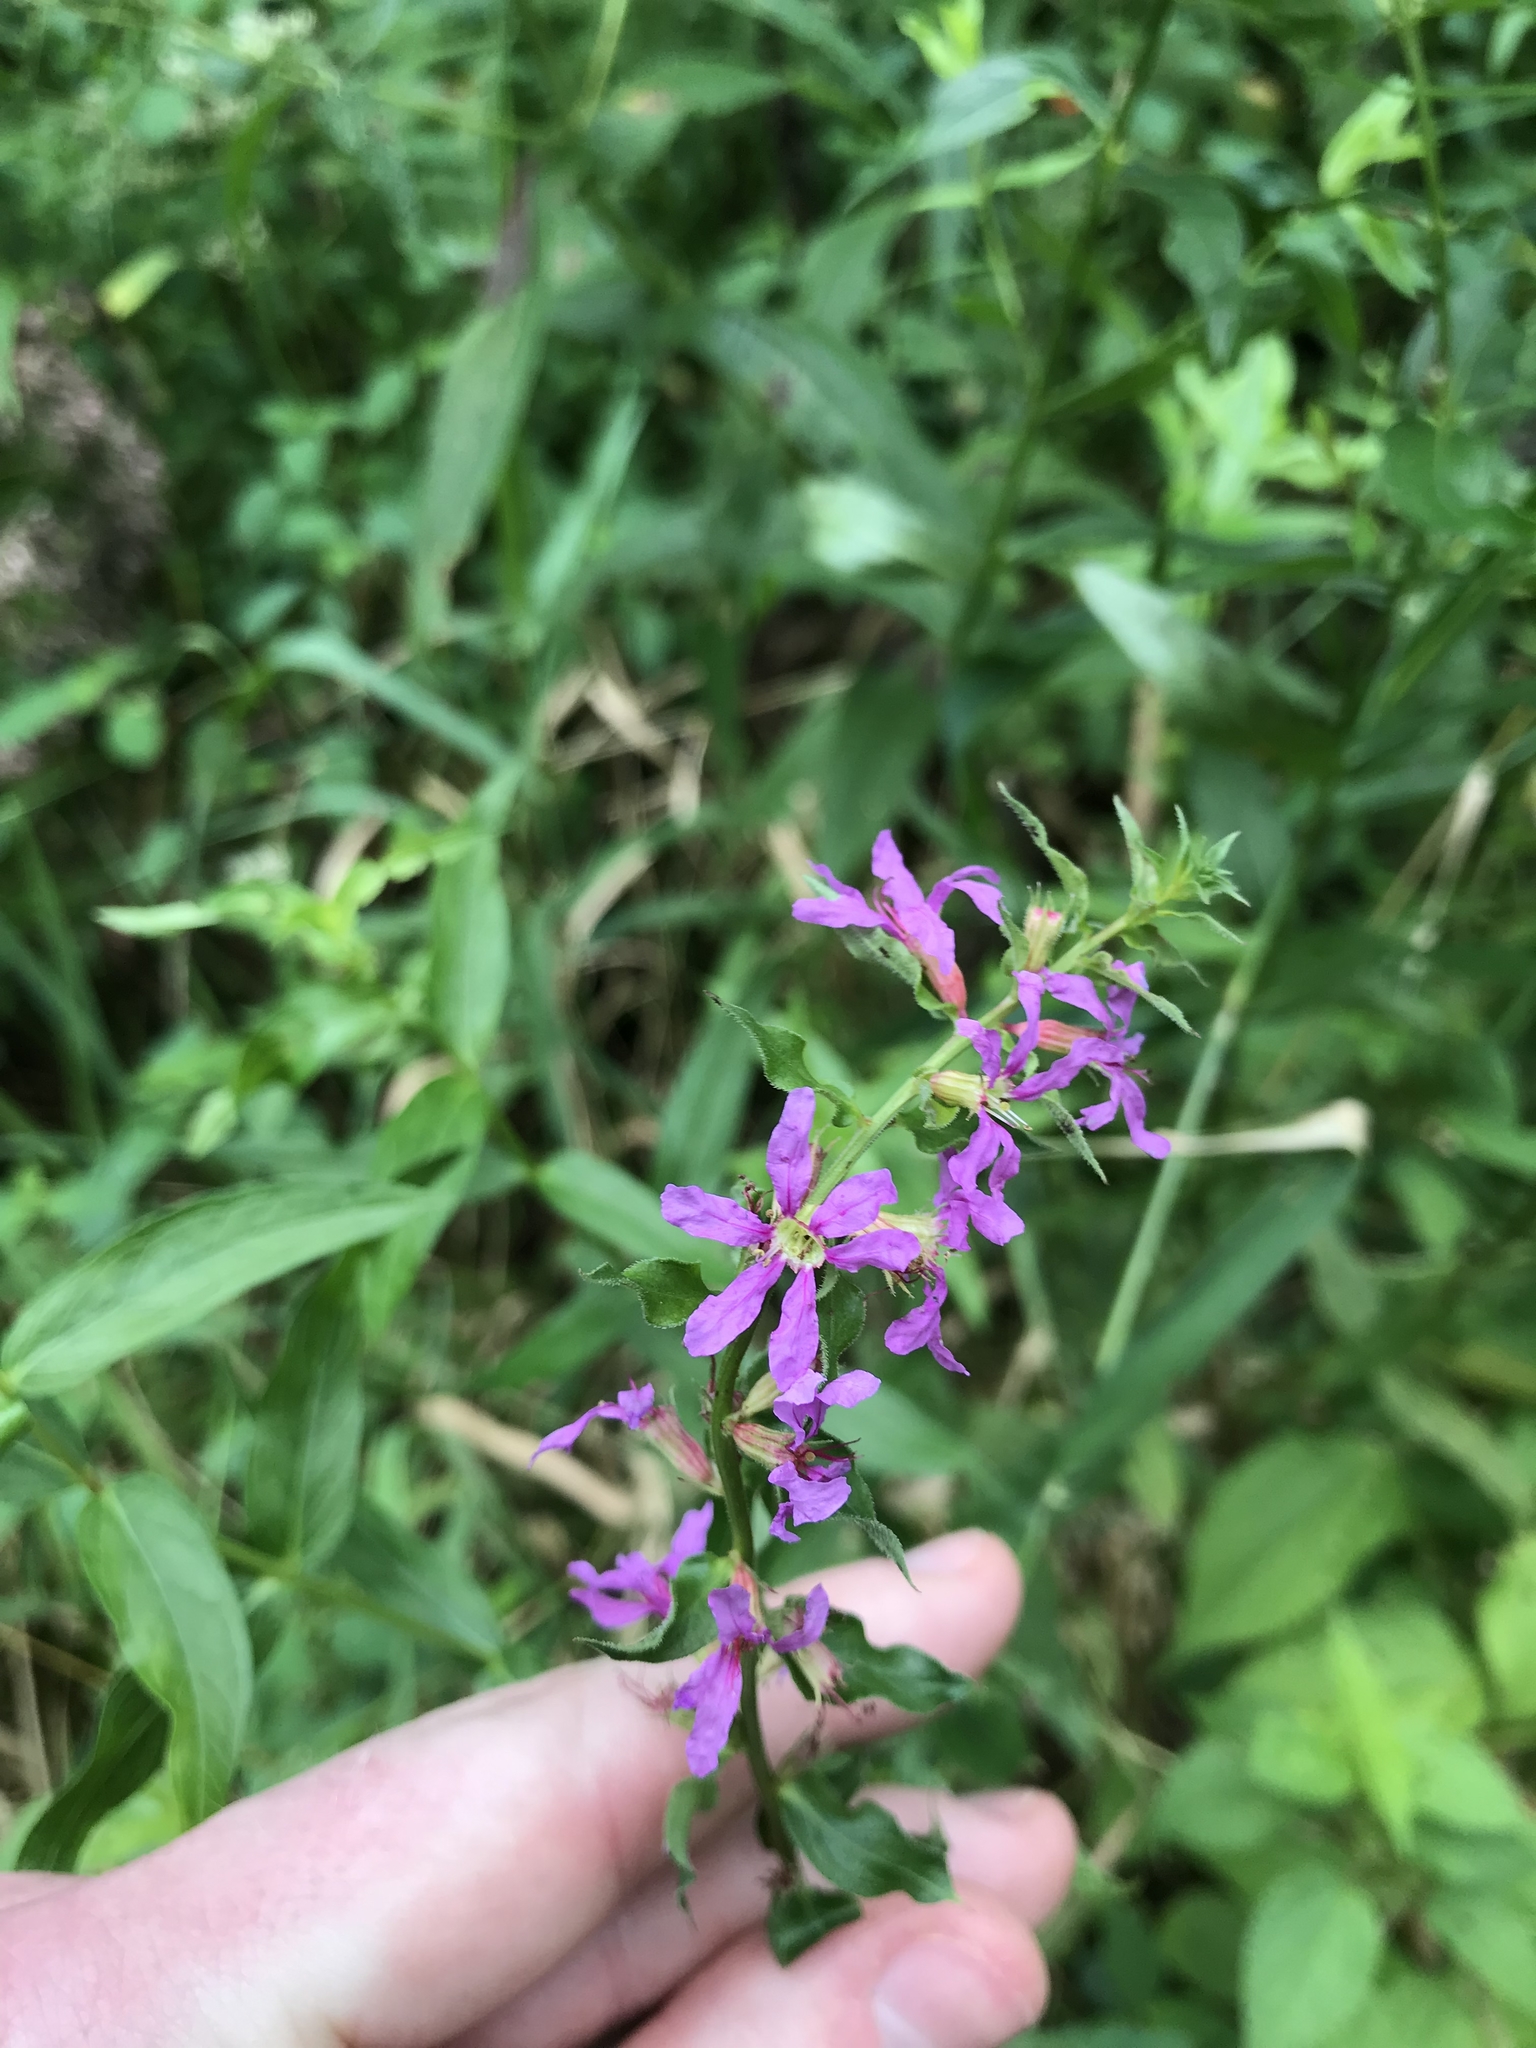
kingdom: Plantae
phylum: Tracheophyta
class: Magnoliopsida
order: Myrtales
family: Lythraceae
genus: Lythrum
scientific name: Lythrum salicaria
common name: Purple loosestrife
